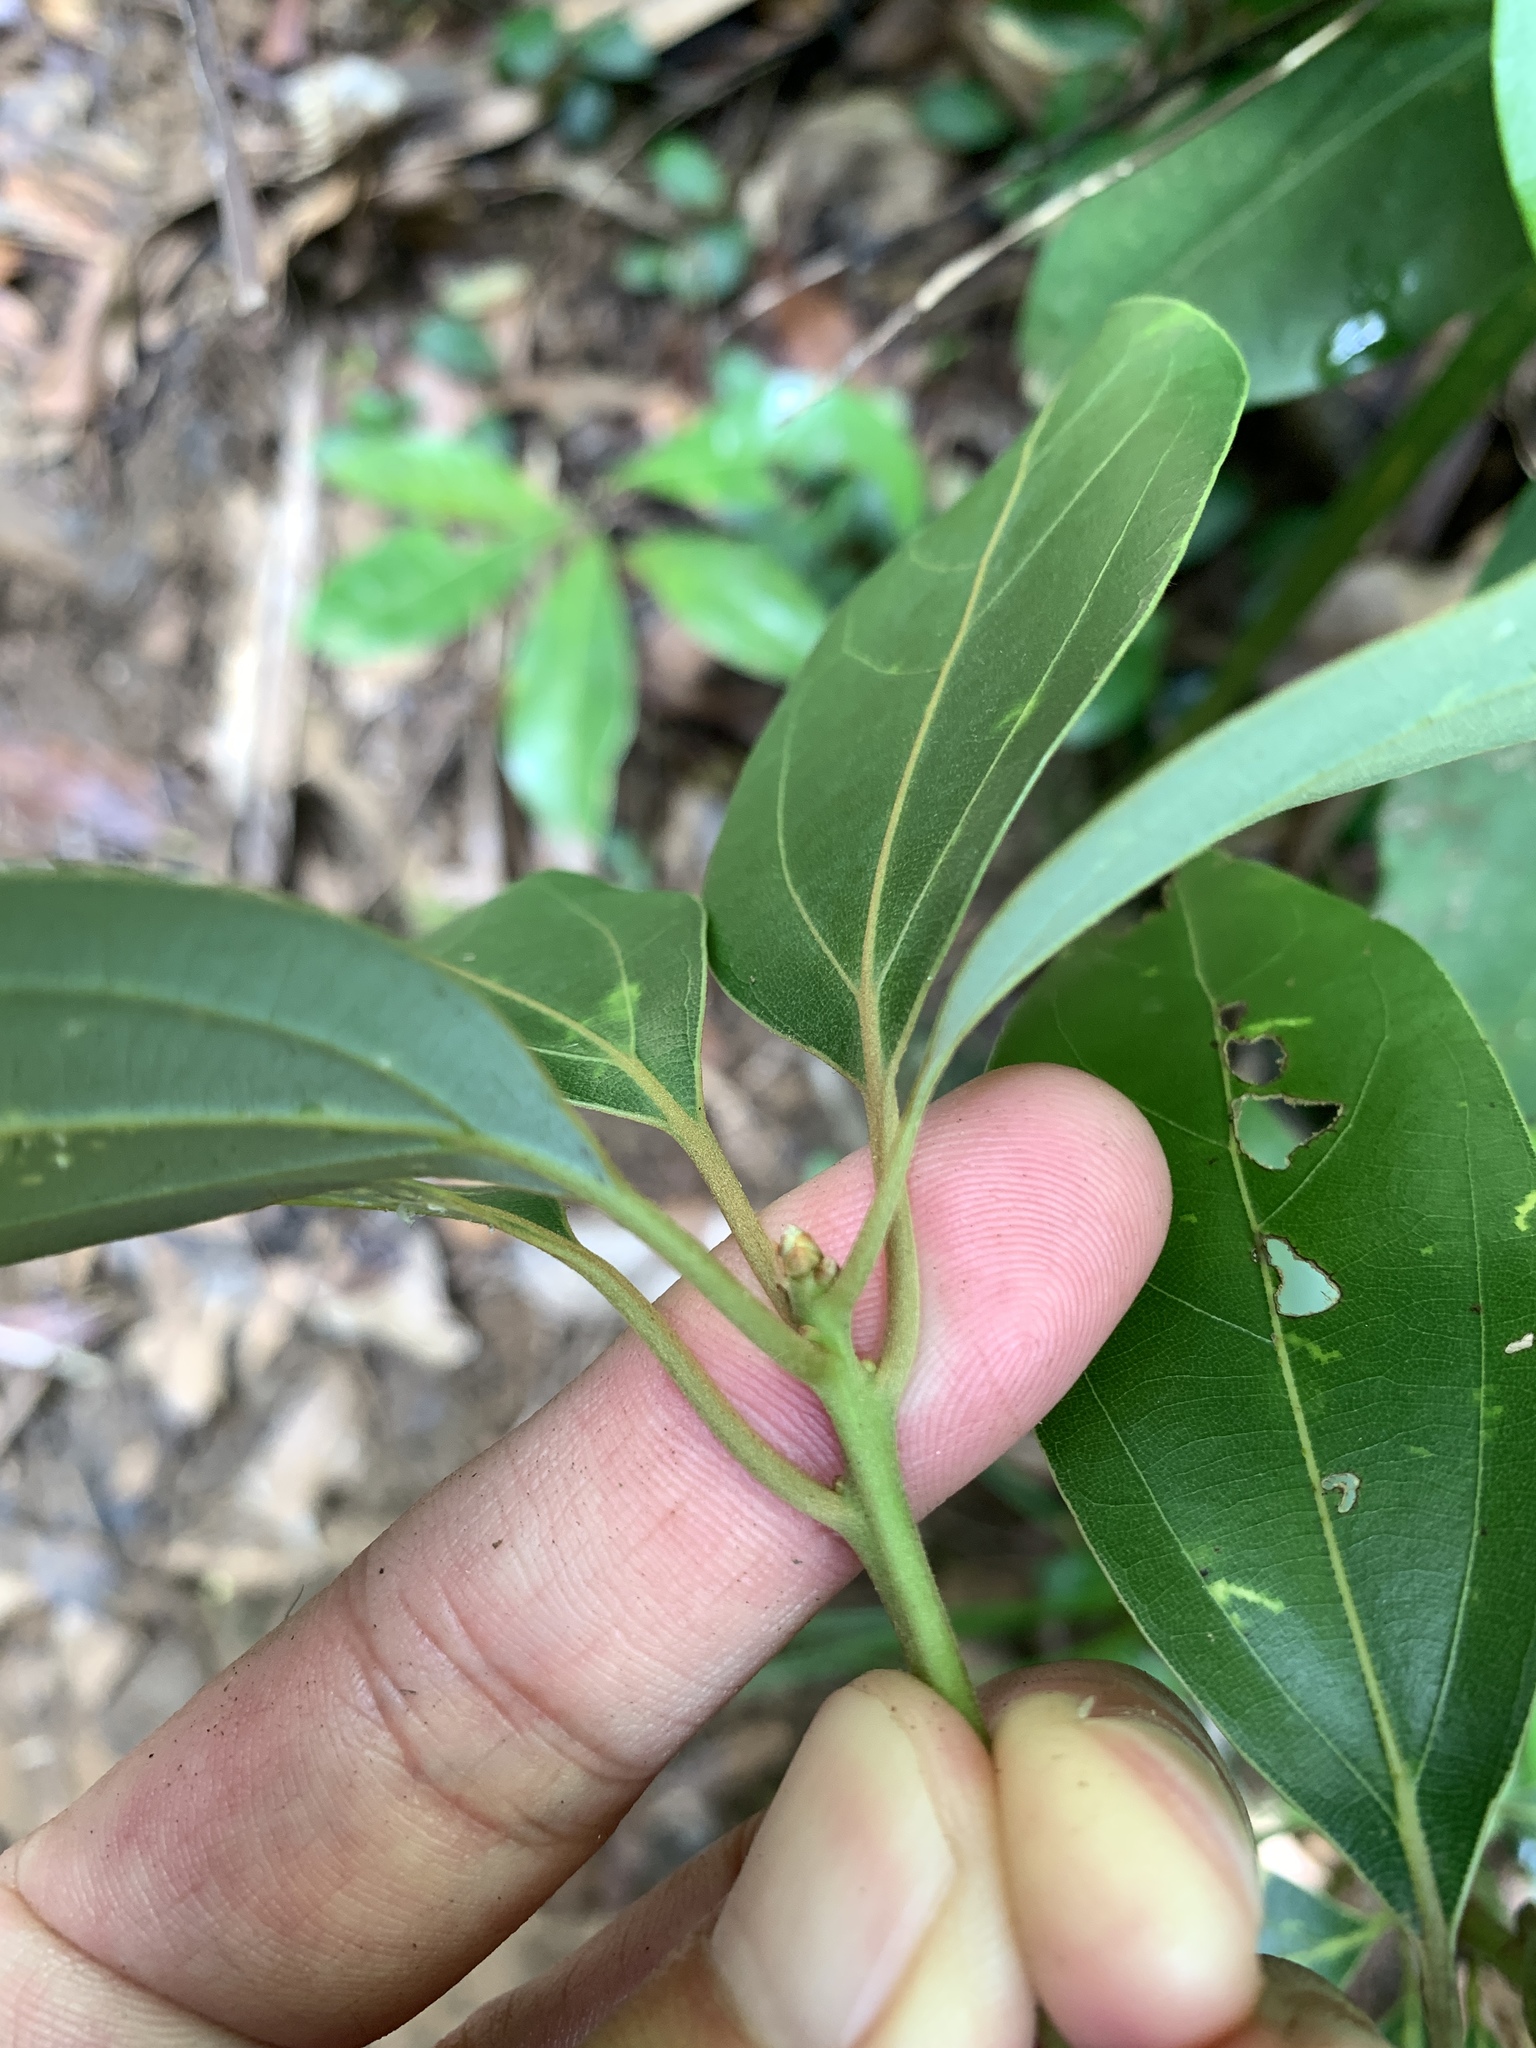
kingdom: Plantae
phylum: Tracheophyta
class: Magnoliopsida
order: Laurales
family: Lauraceae
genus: Neolitsea
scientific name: Neolitsea villosa
